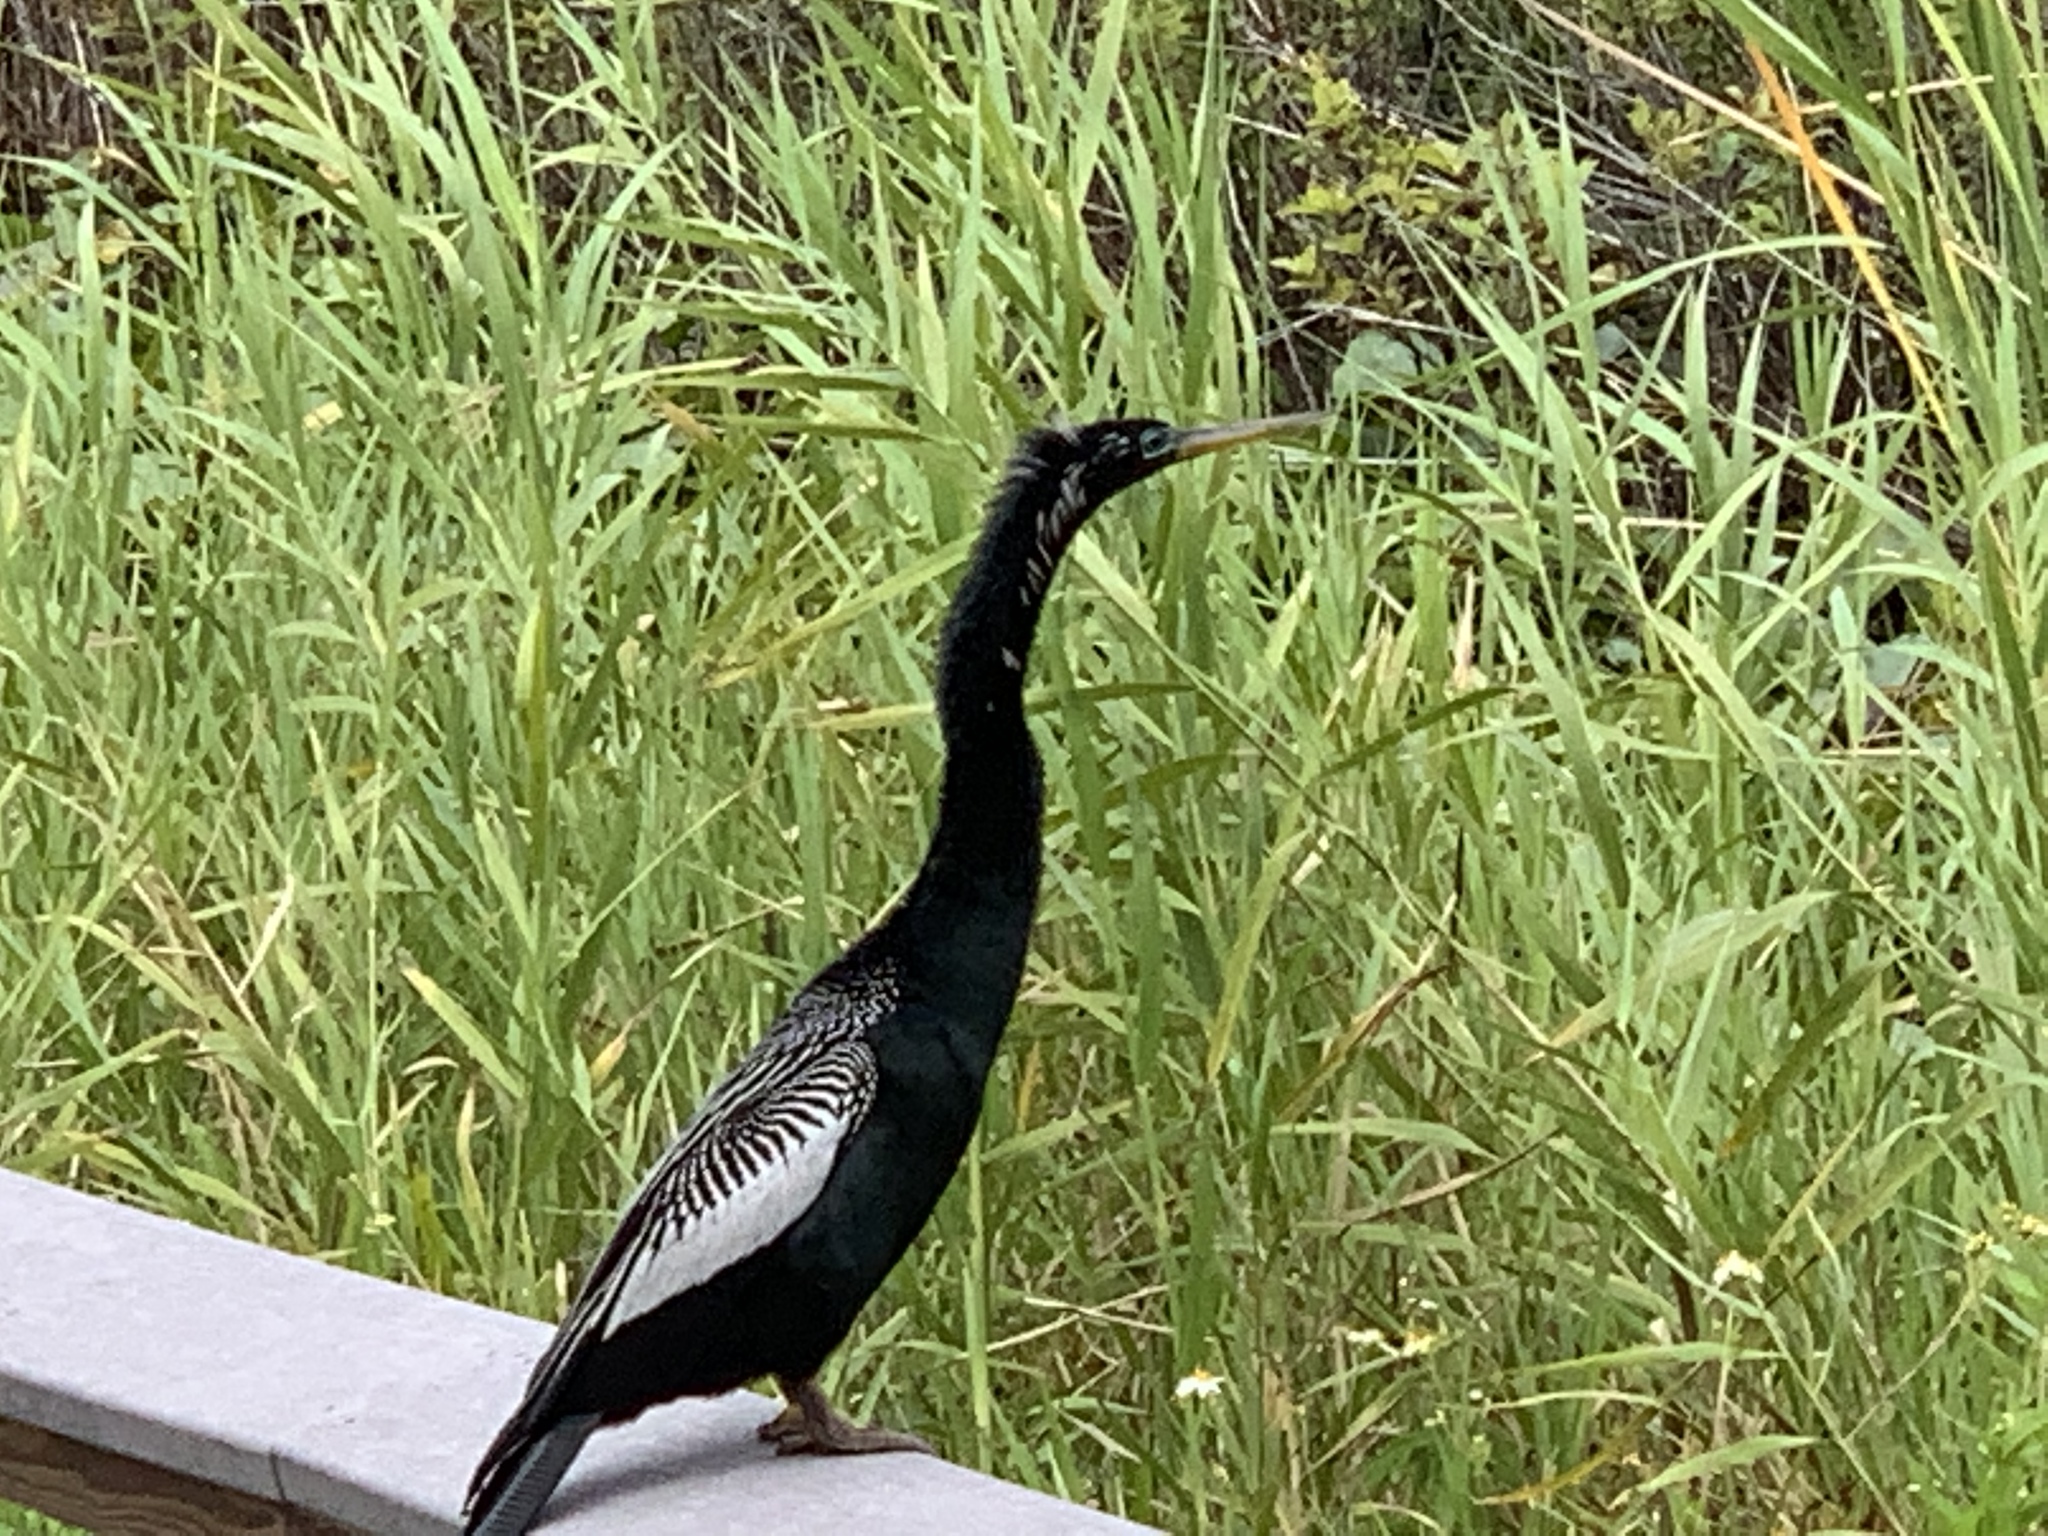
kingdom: Animalia
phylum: Chordata
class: Aves
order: Suliformes
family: Anhingidae
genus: Anhinga
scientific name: Anhinga anhinga
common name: Anhinga
